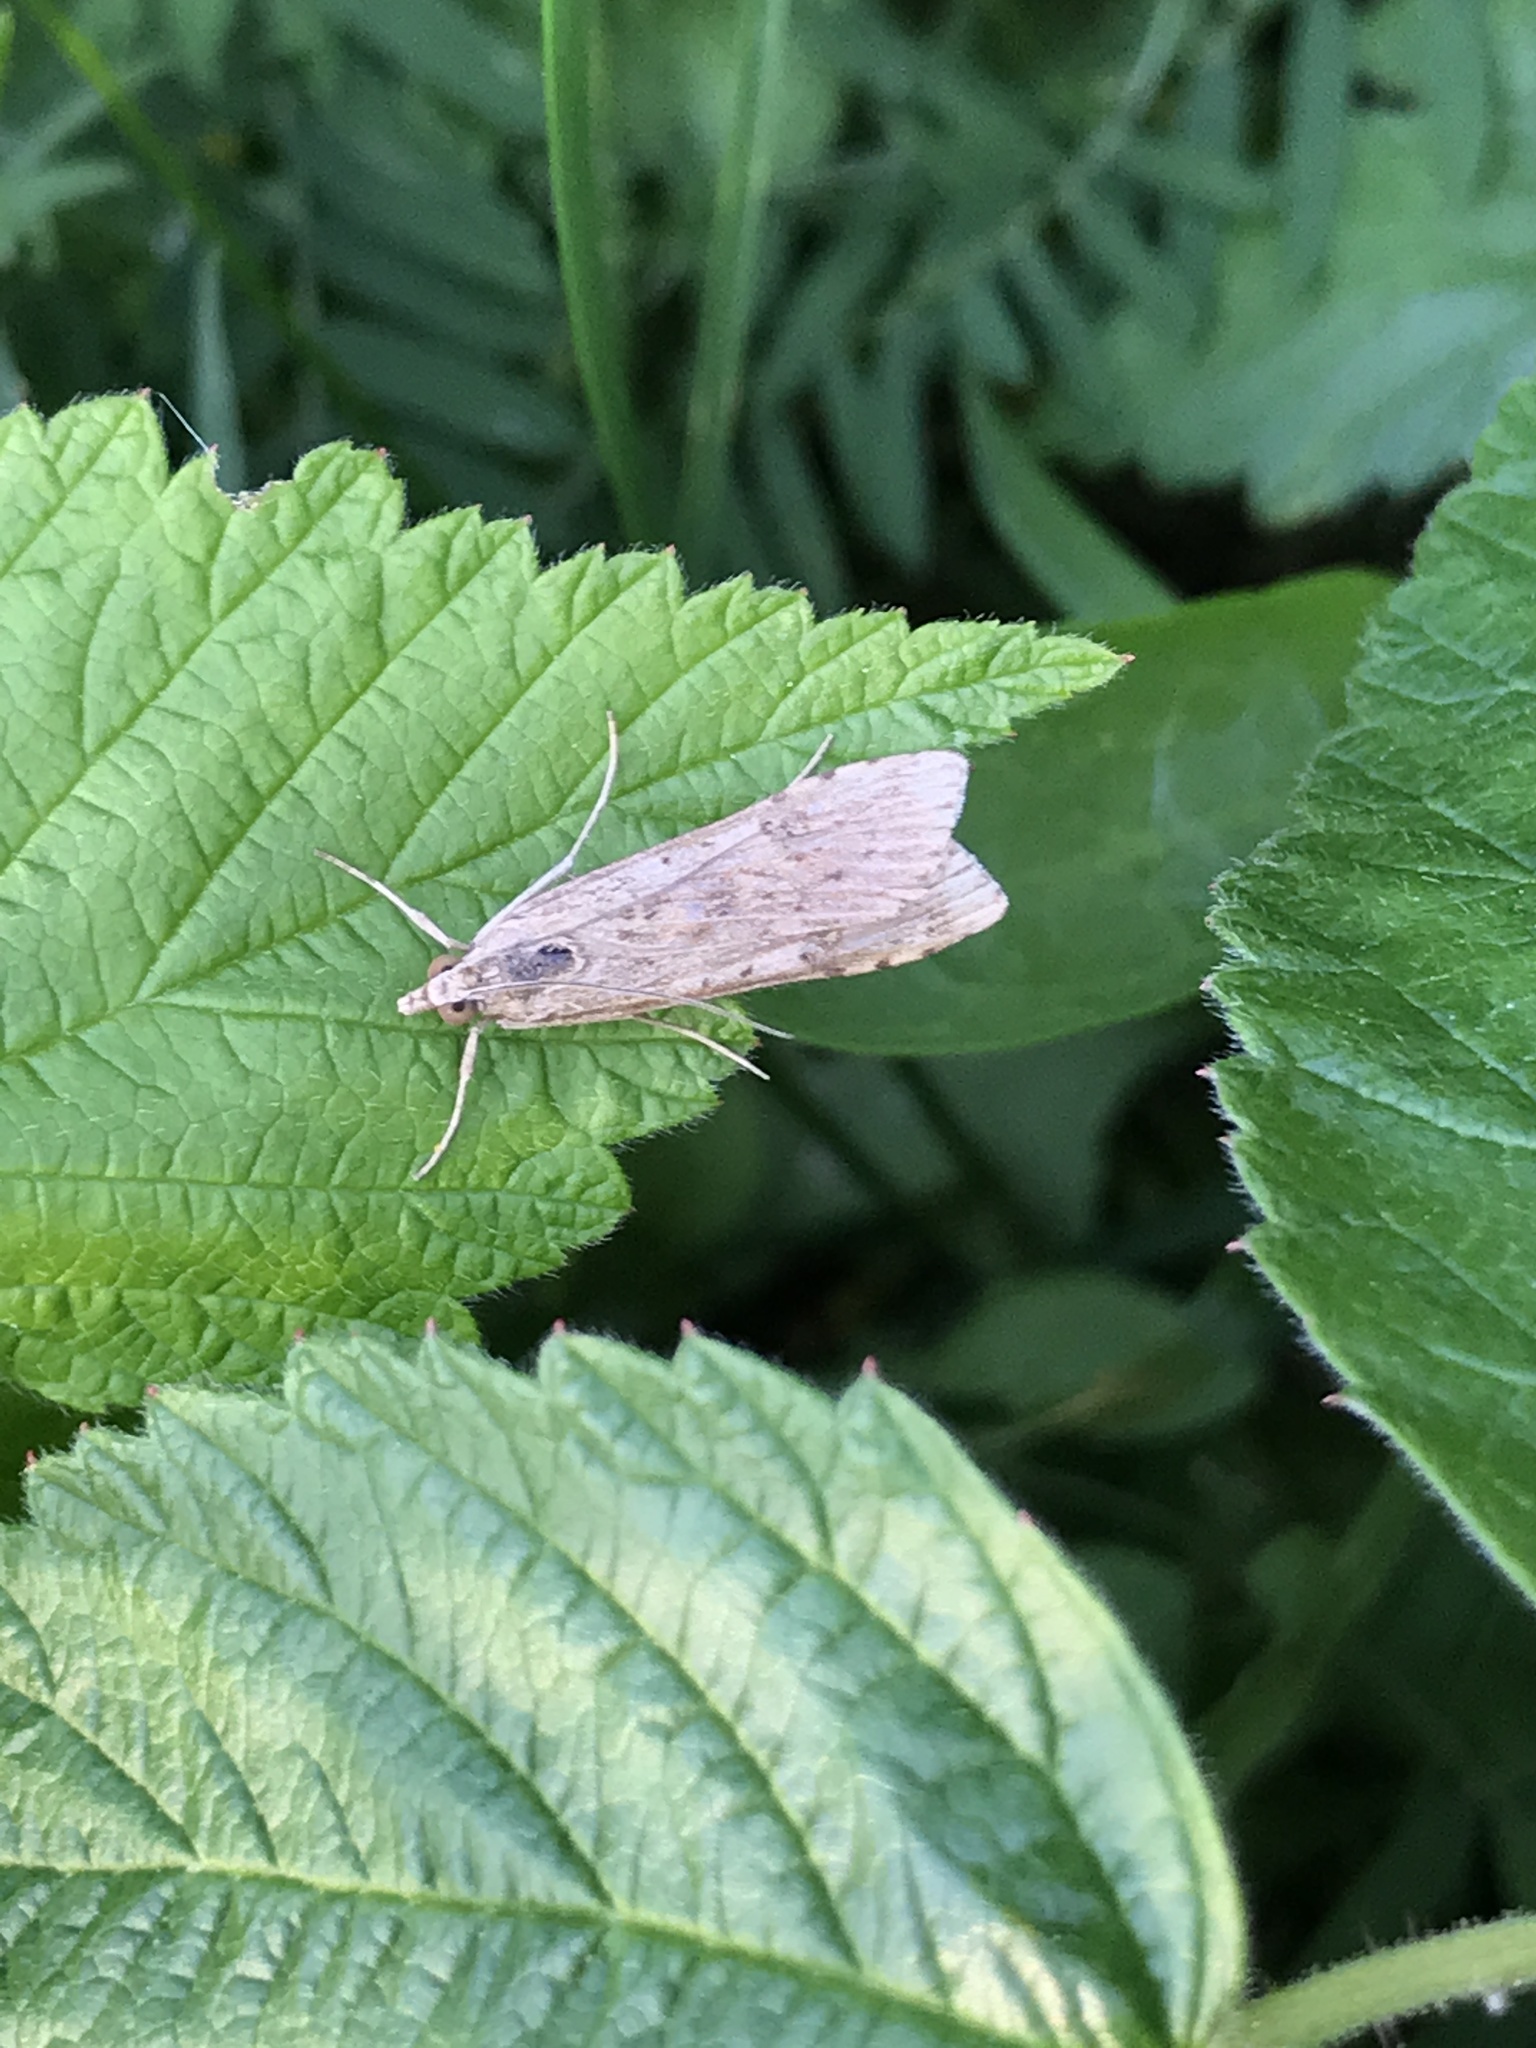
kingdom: Animalia
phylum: Arthropoda
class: Insecta
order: Lepidoptera
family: Crambidae
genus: Nomophila
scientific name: Nomophila nearctica
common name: American rush veneer
